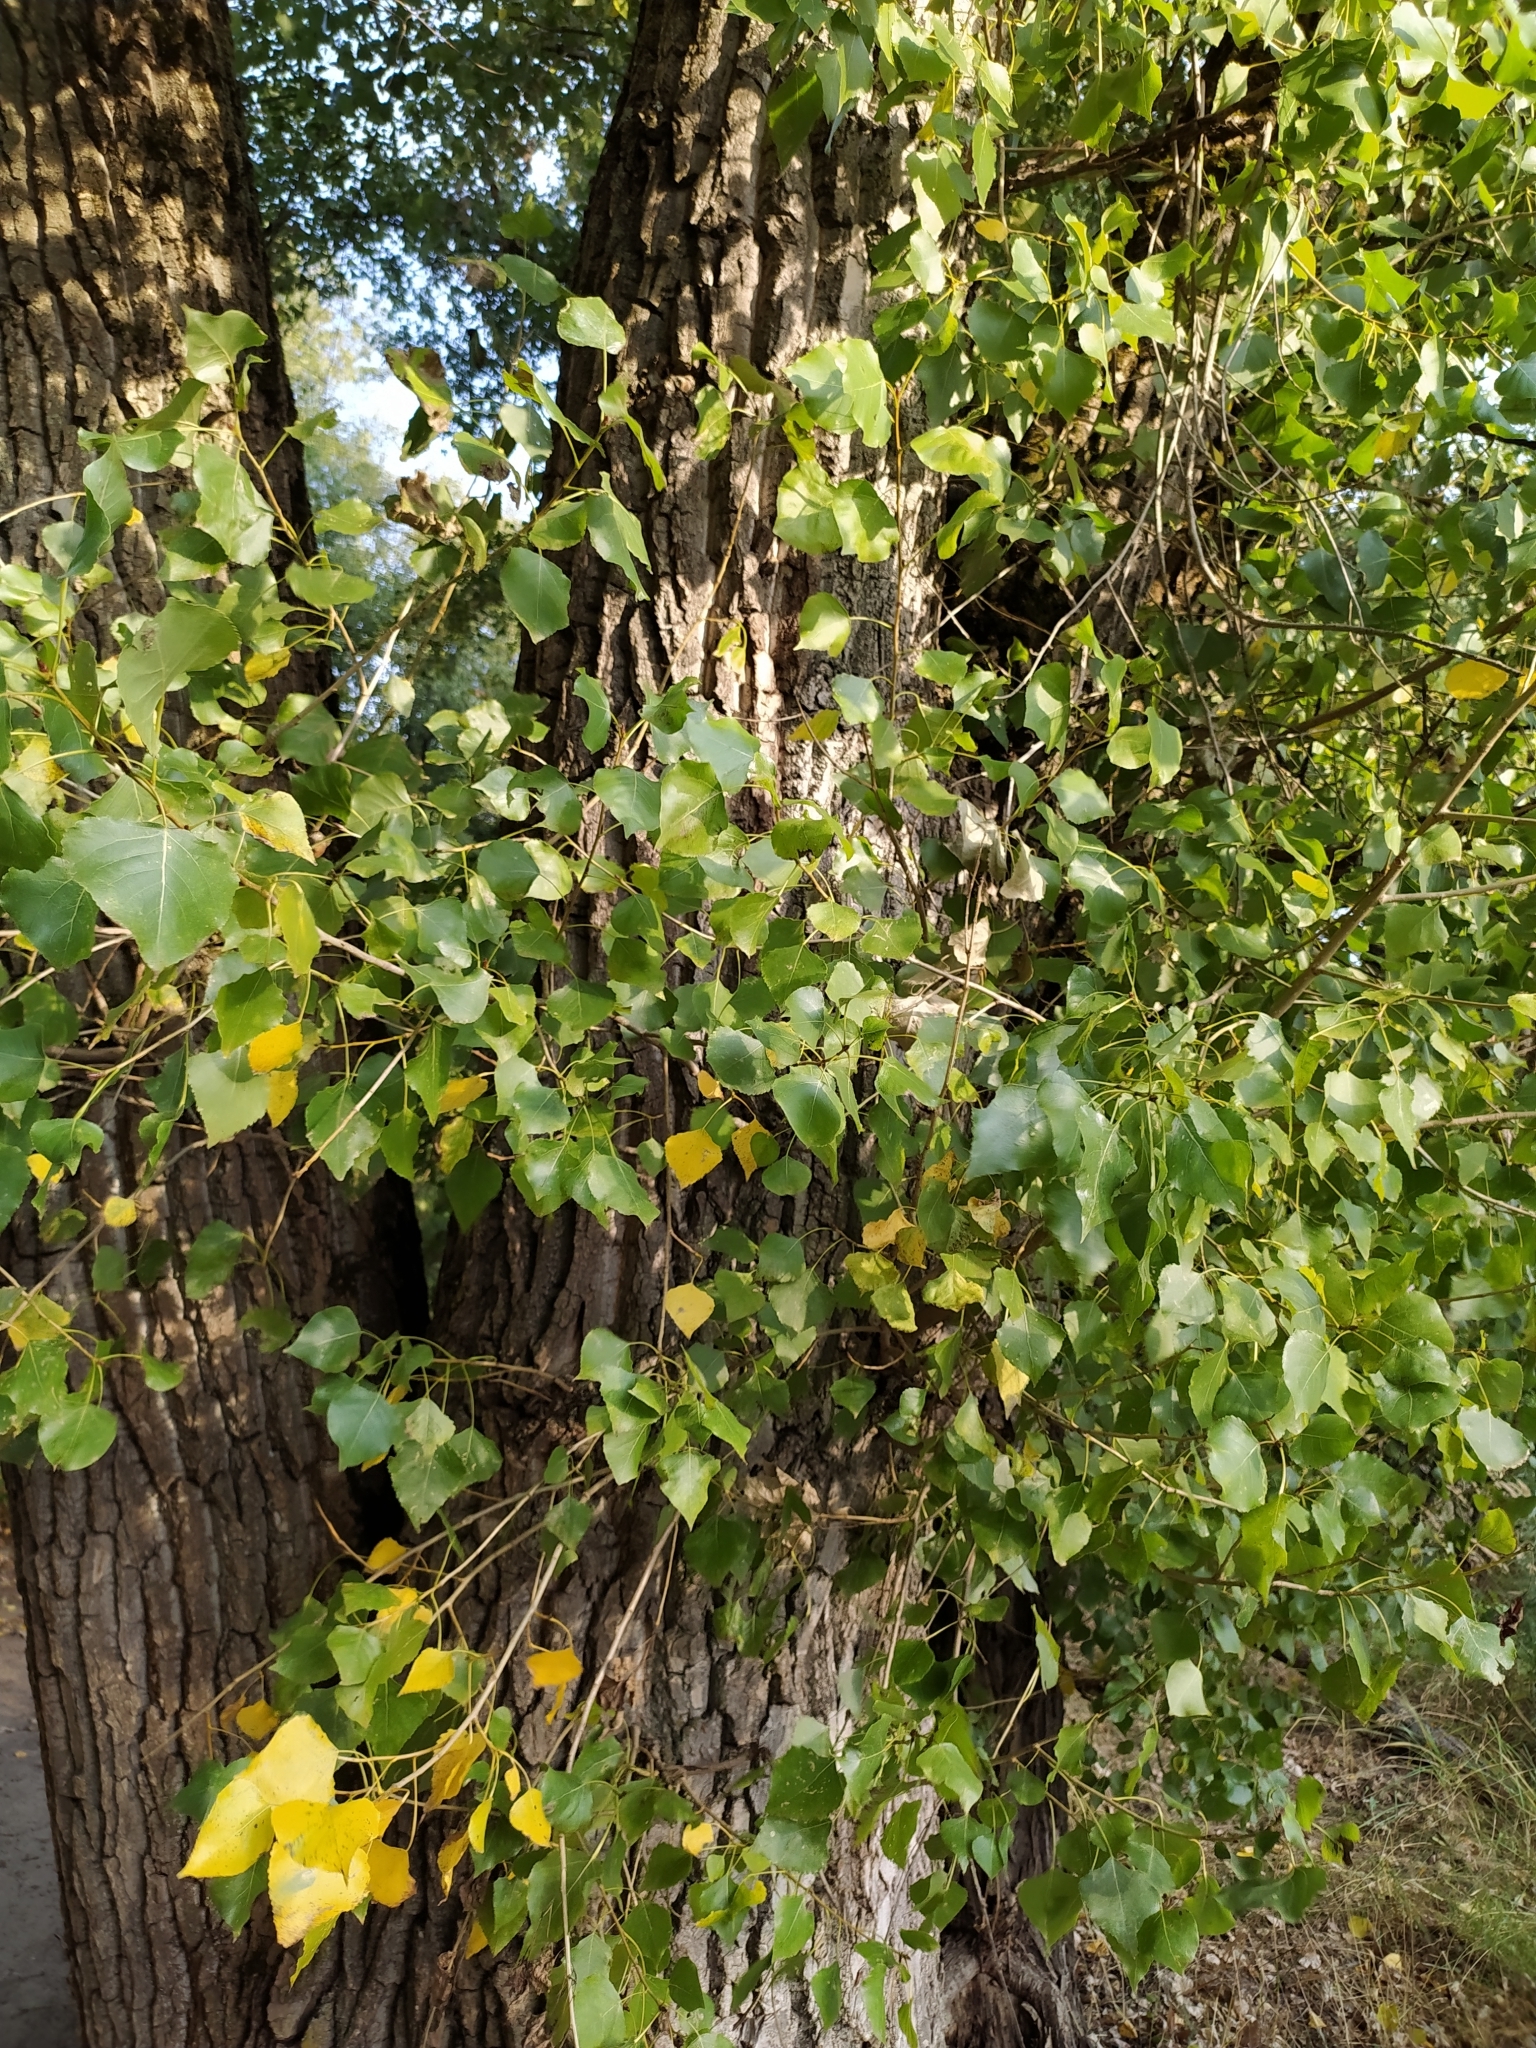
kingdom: Plantae
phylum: Tracheophyta
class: Magnoliopsida
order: Malpighiales
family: Salicaceae
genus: Populus
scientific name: Populus nigra
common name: Black poplar
